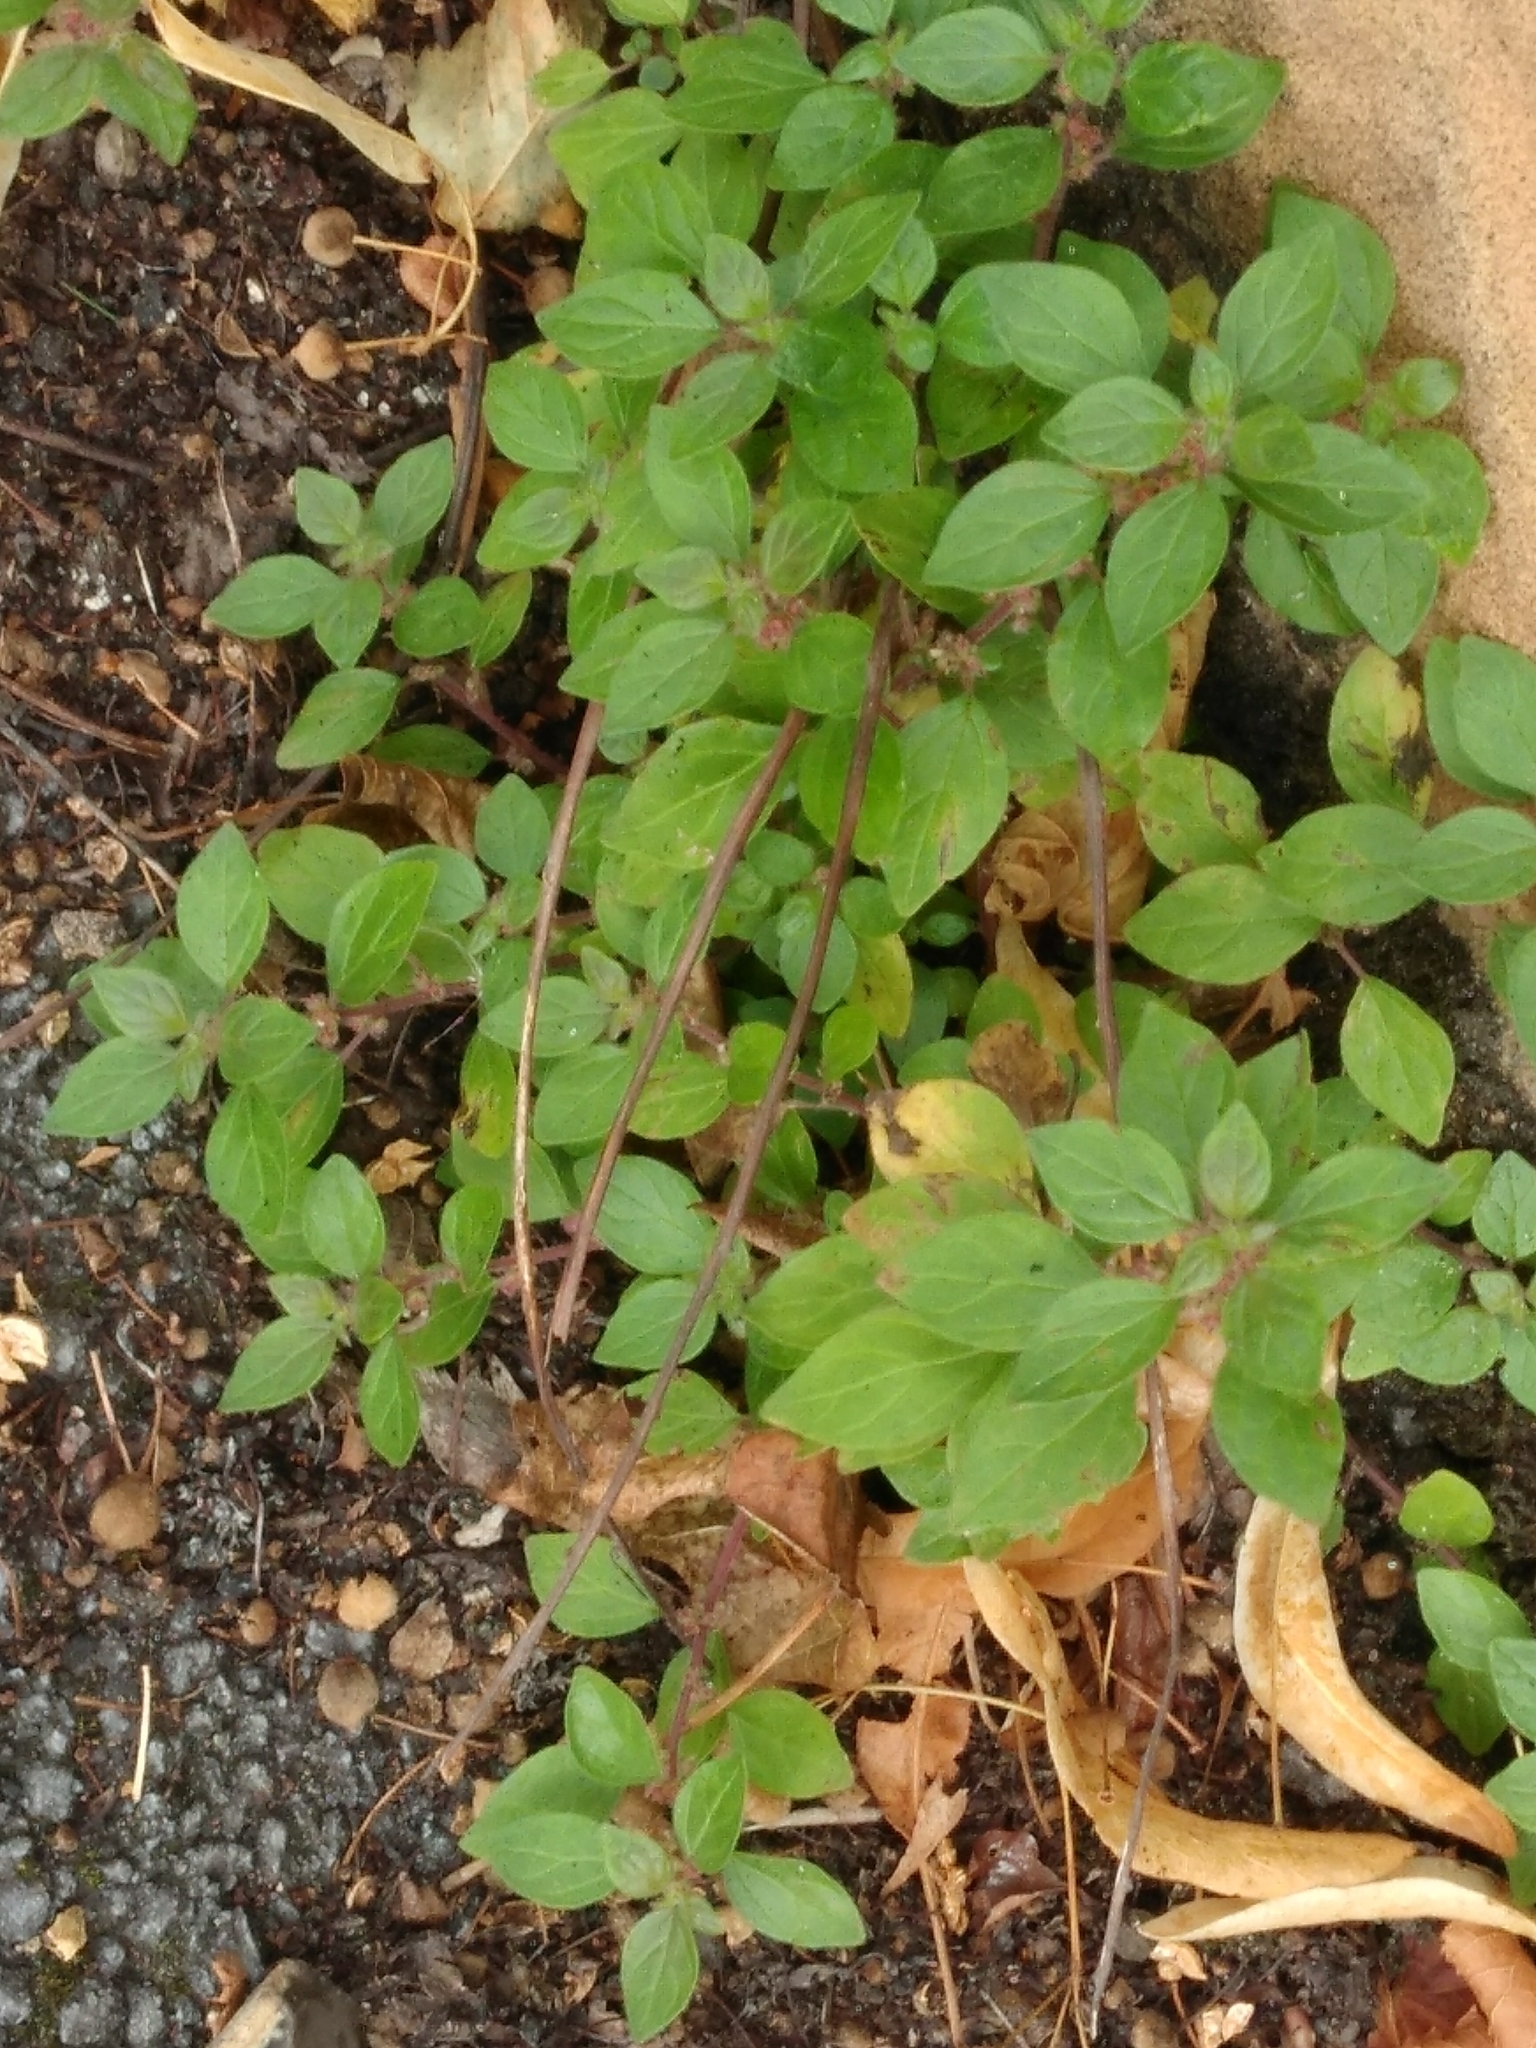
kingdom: Plantae
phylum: Tracheophyta
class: Magnoliopsida
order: Rosales
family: Urticaceae
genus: Parietaria
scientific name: Parietaria judaica
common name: Pellitory-of-the-wall
